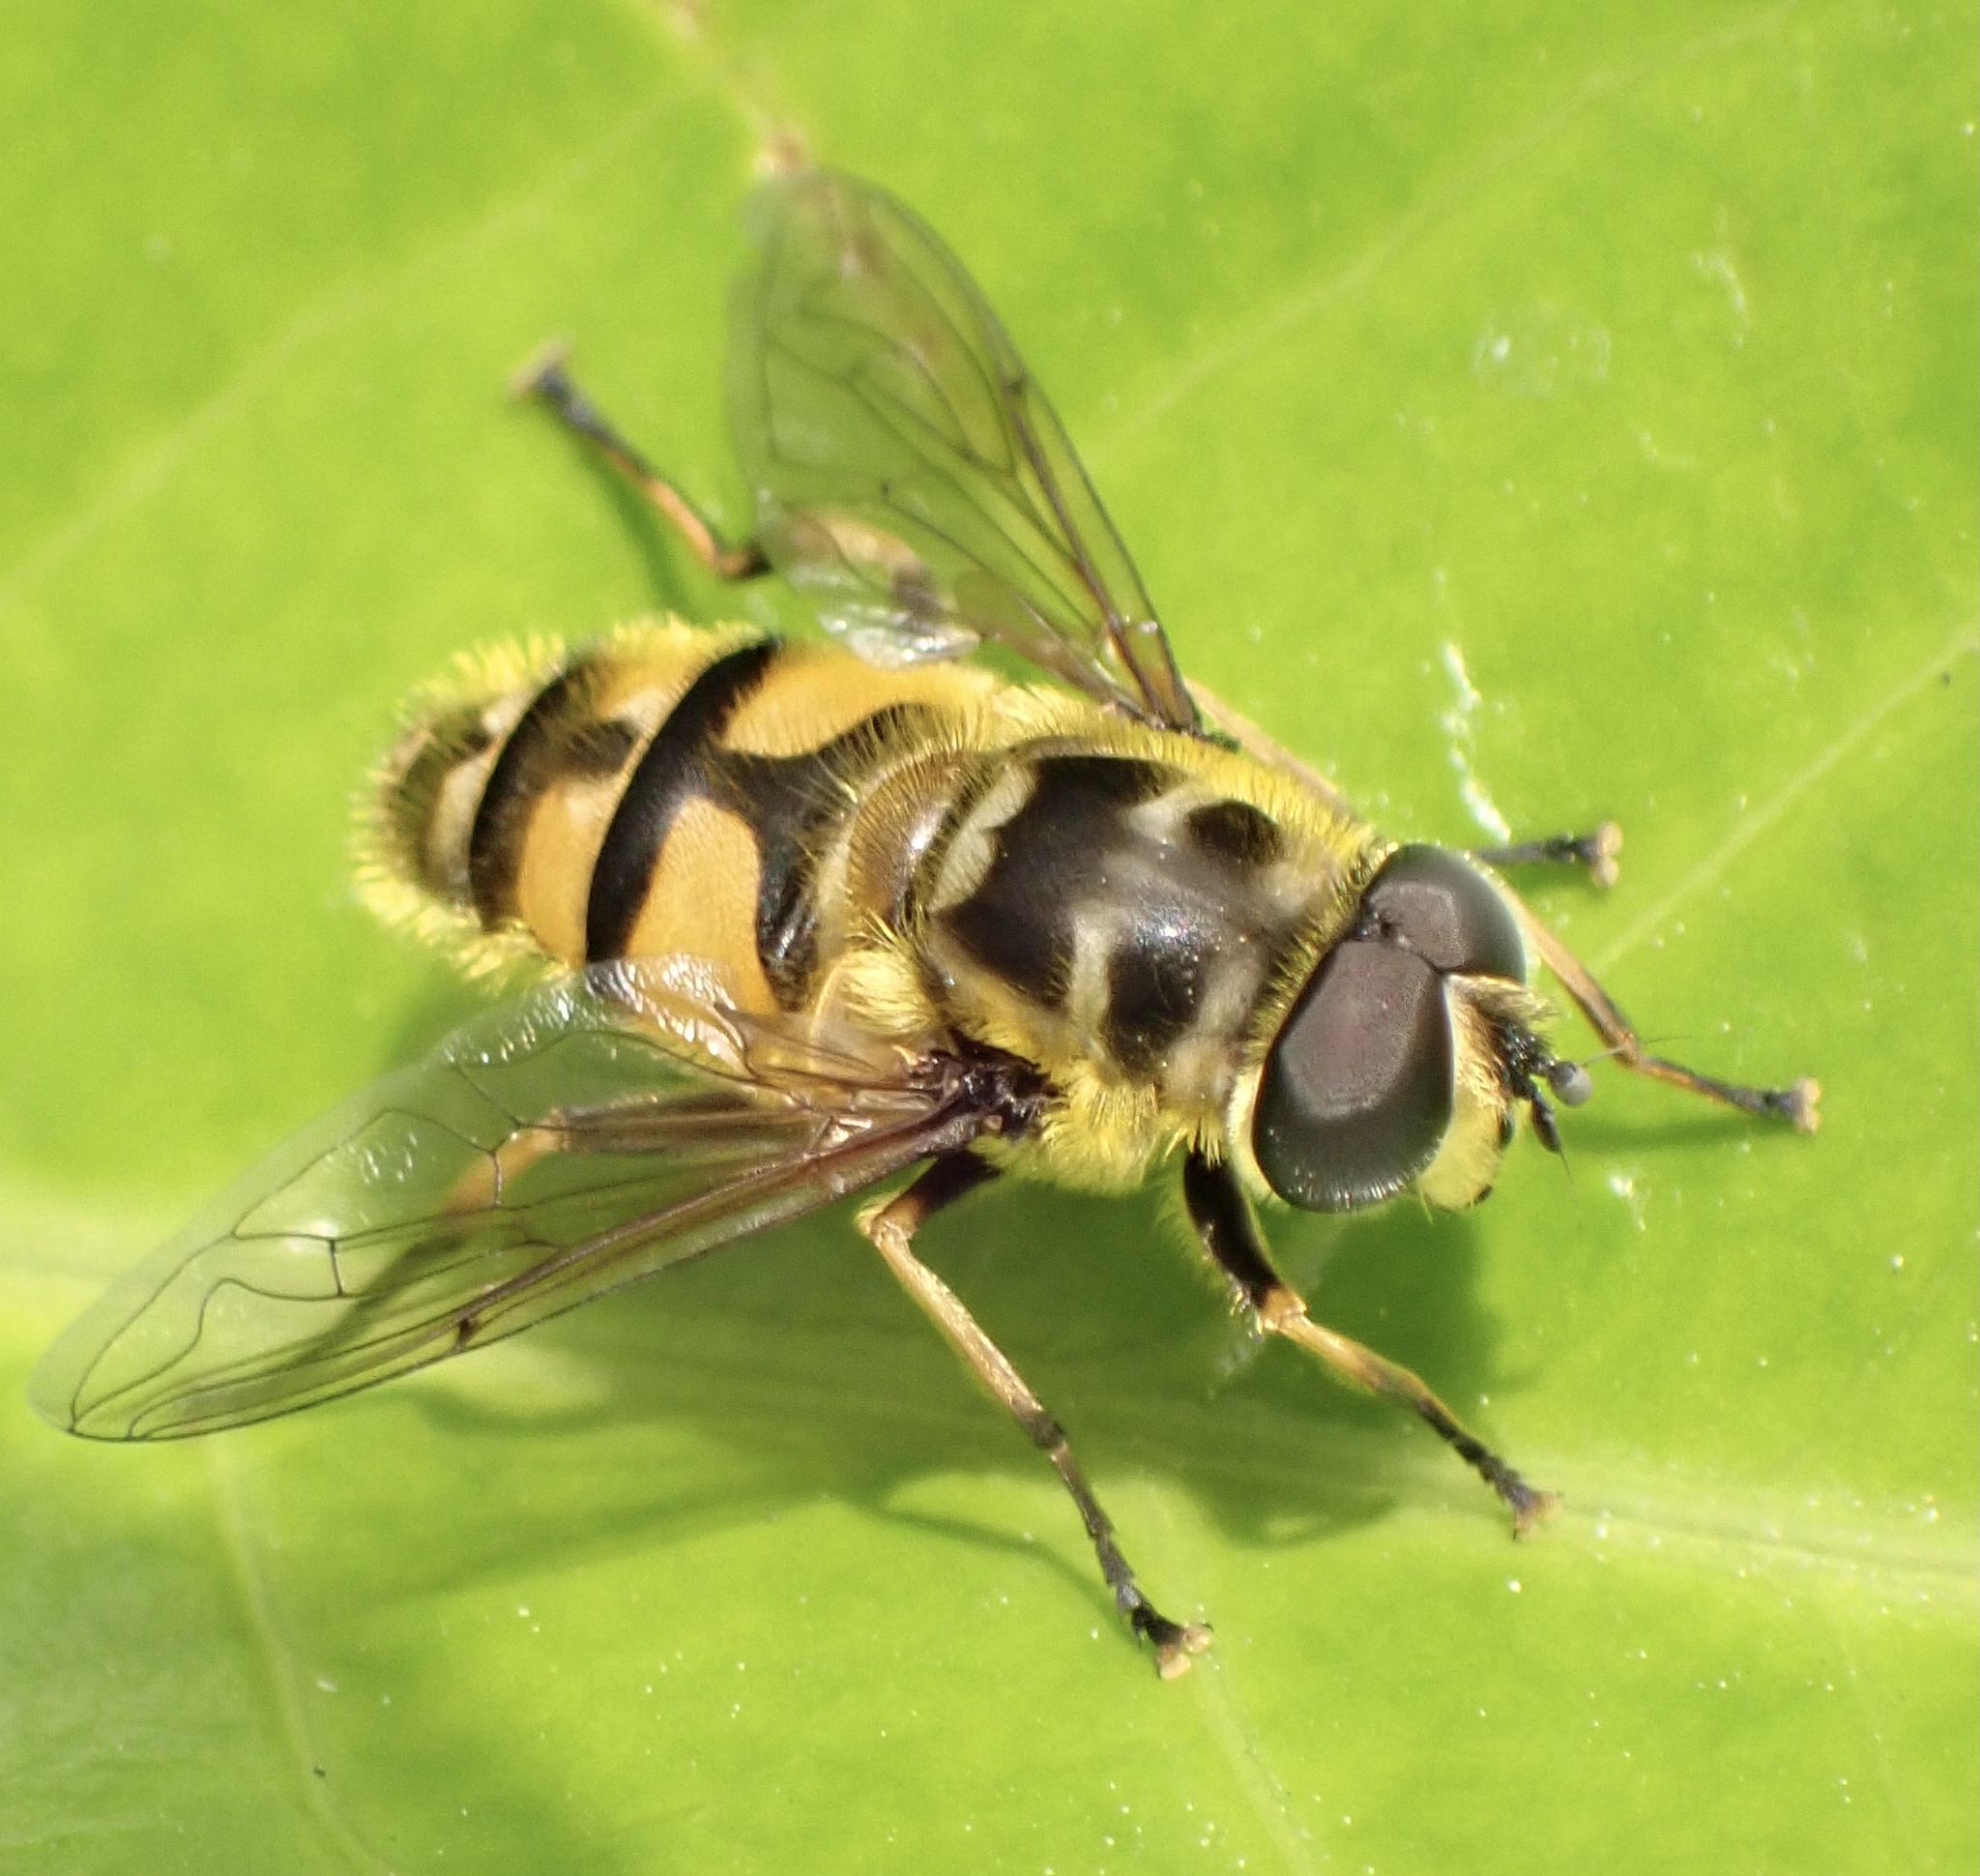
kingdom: Animalia
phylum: Arthropoda
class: Insecta
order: Diptera
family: Syrphidae
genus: Myathropa
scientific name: Myathropa florea
